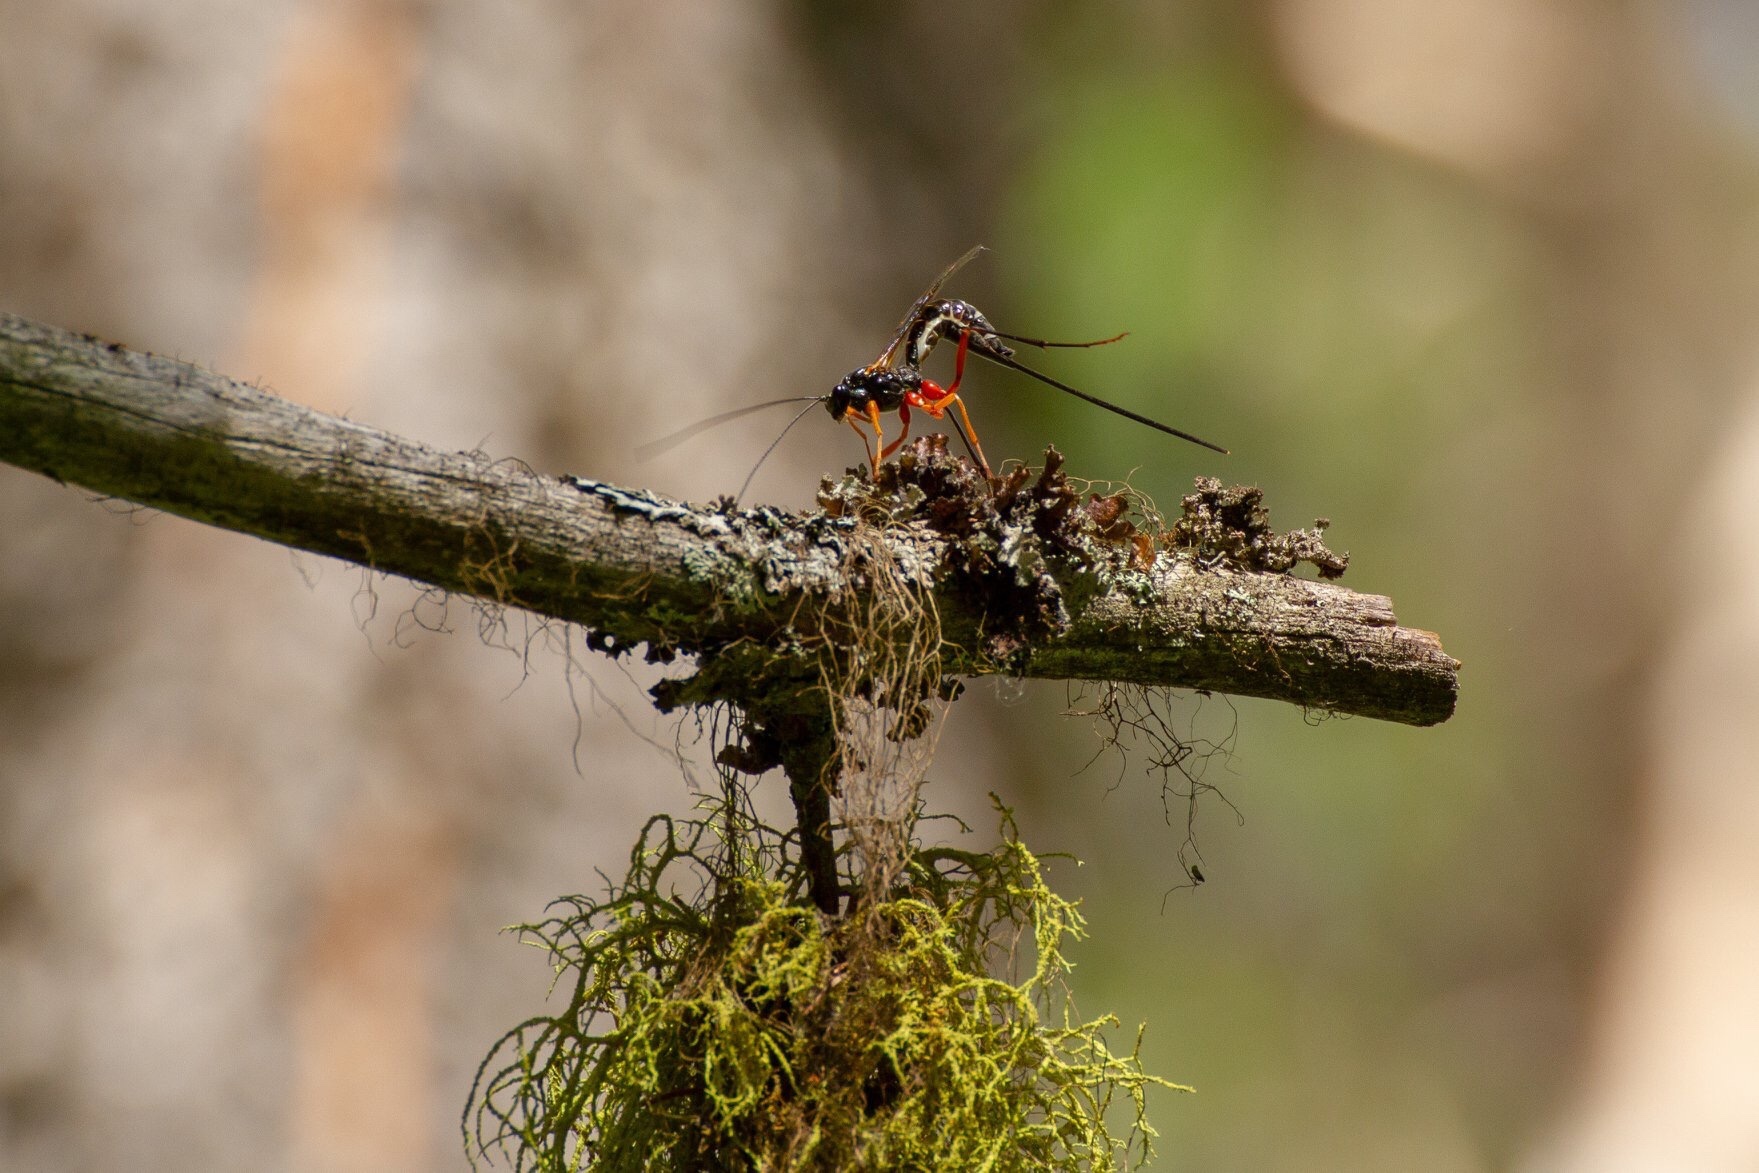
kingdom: Animalia
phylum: Arthropoda
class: Insecta
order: Hymenoptera
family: Ichneumonidae
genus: Coleocentrus
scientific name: Coleocentrus flavipes
